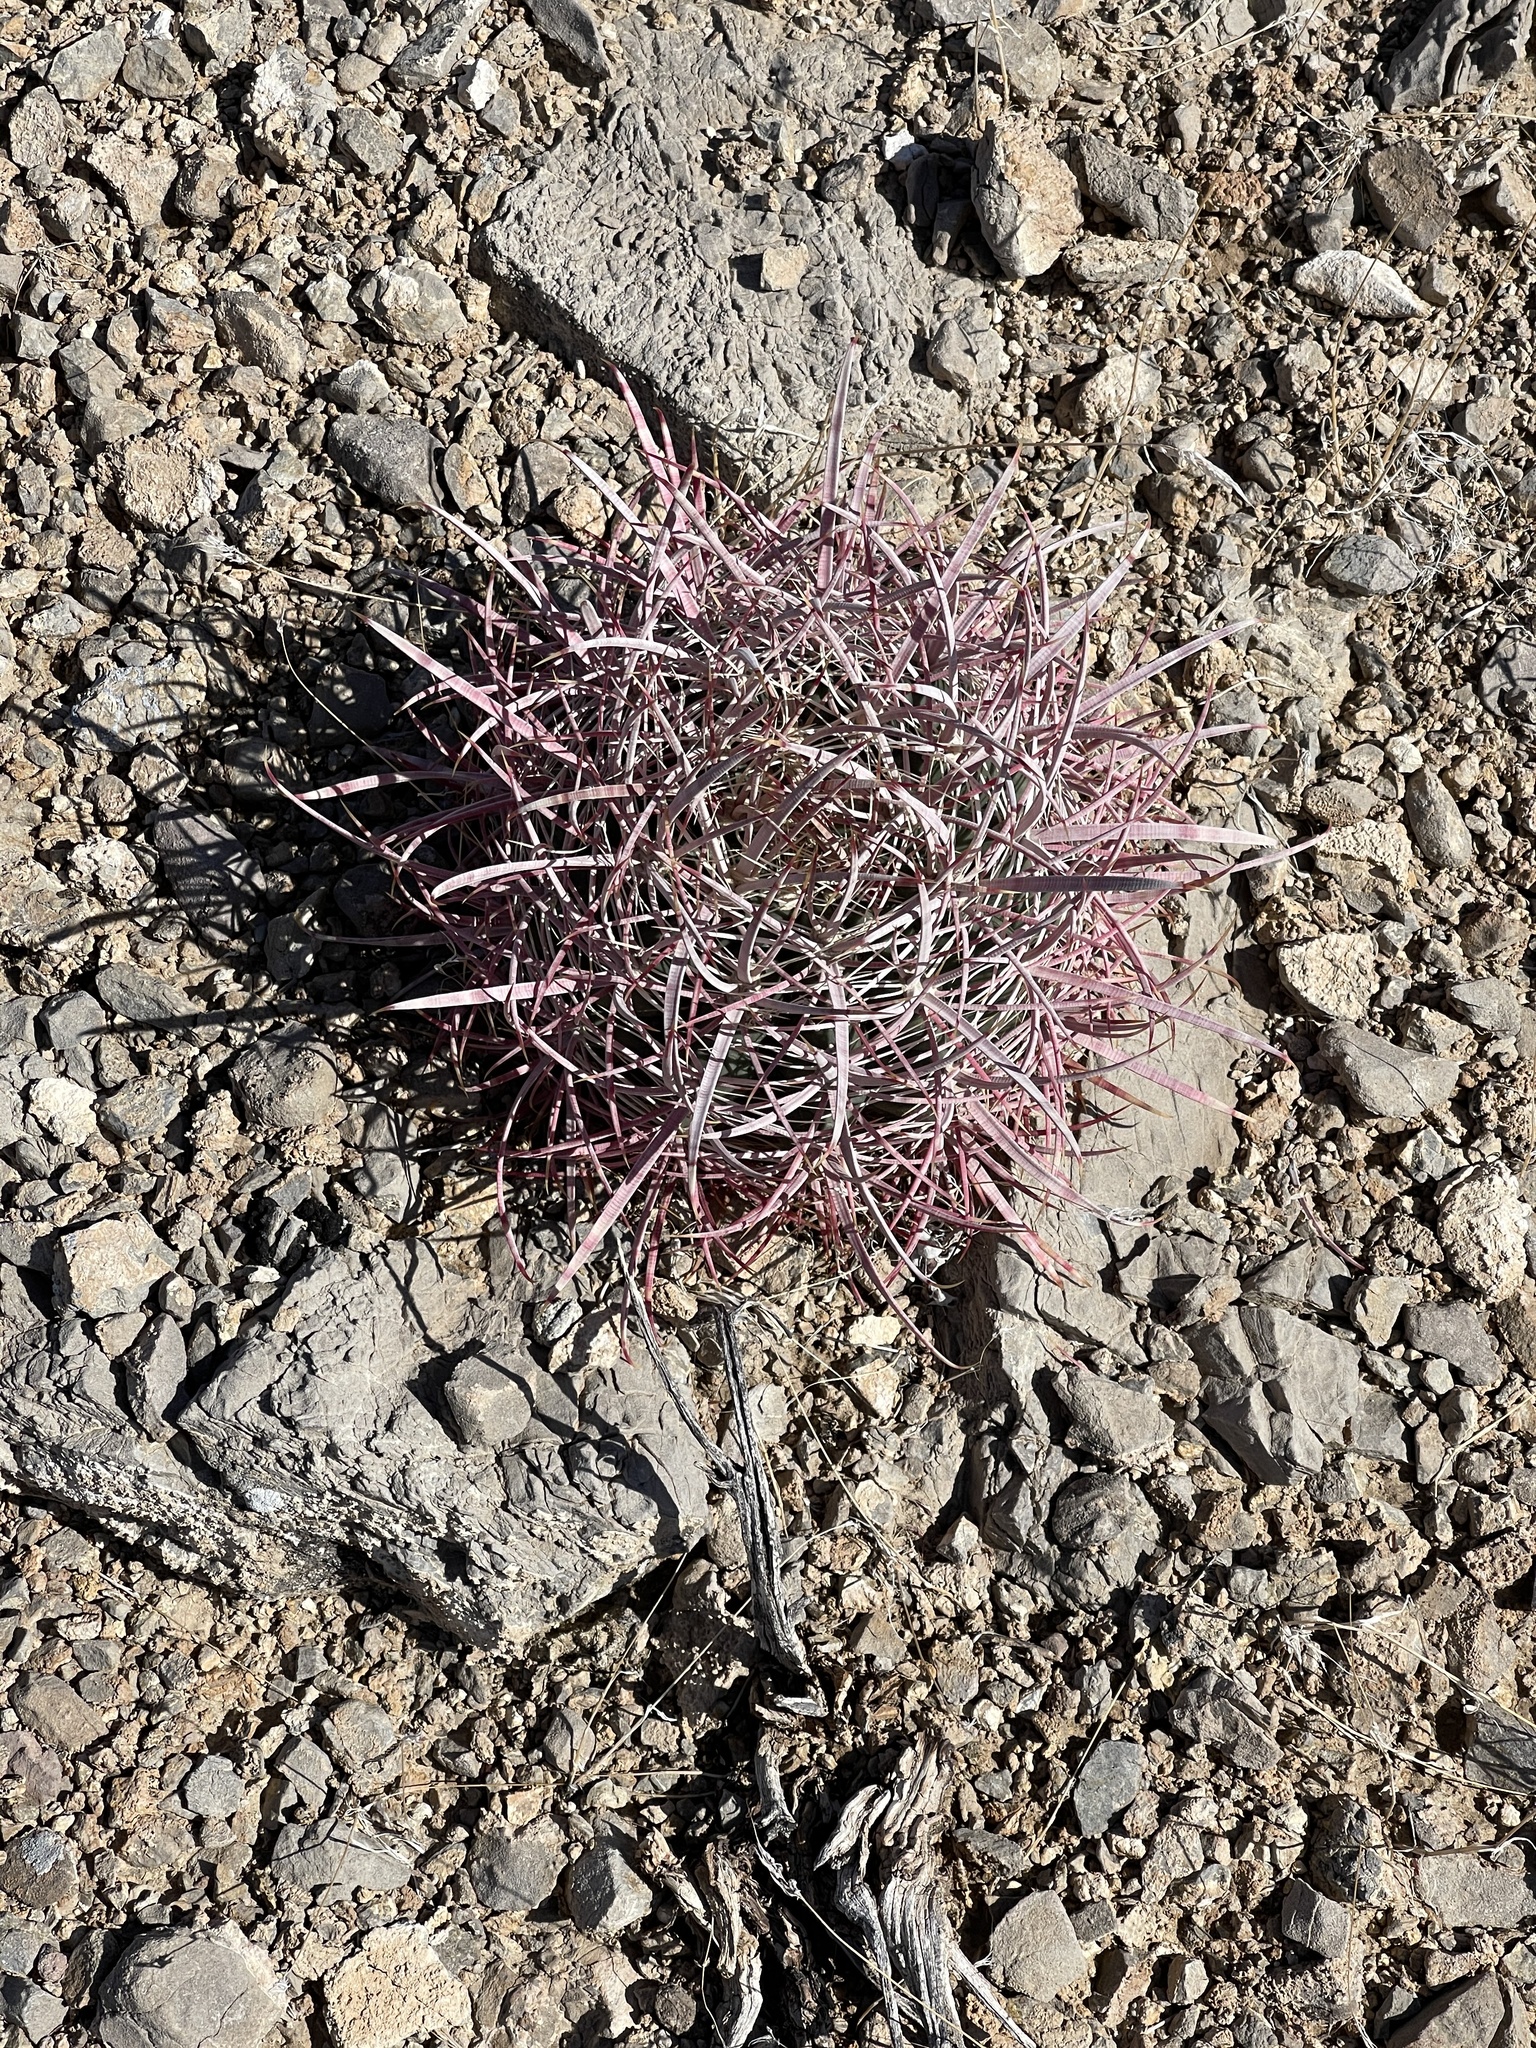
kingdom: Plantae
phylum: Tracheophyta
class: Magnoliopsida
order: Caryophyllales
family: Cactaceae
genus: Echinocactus
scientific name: Echinocactus polycephalus
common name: Cottontop cactus
